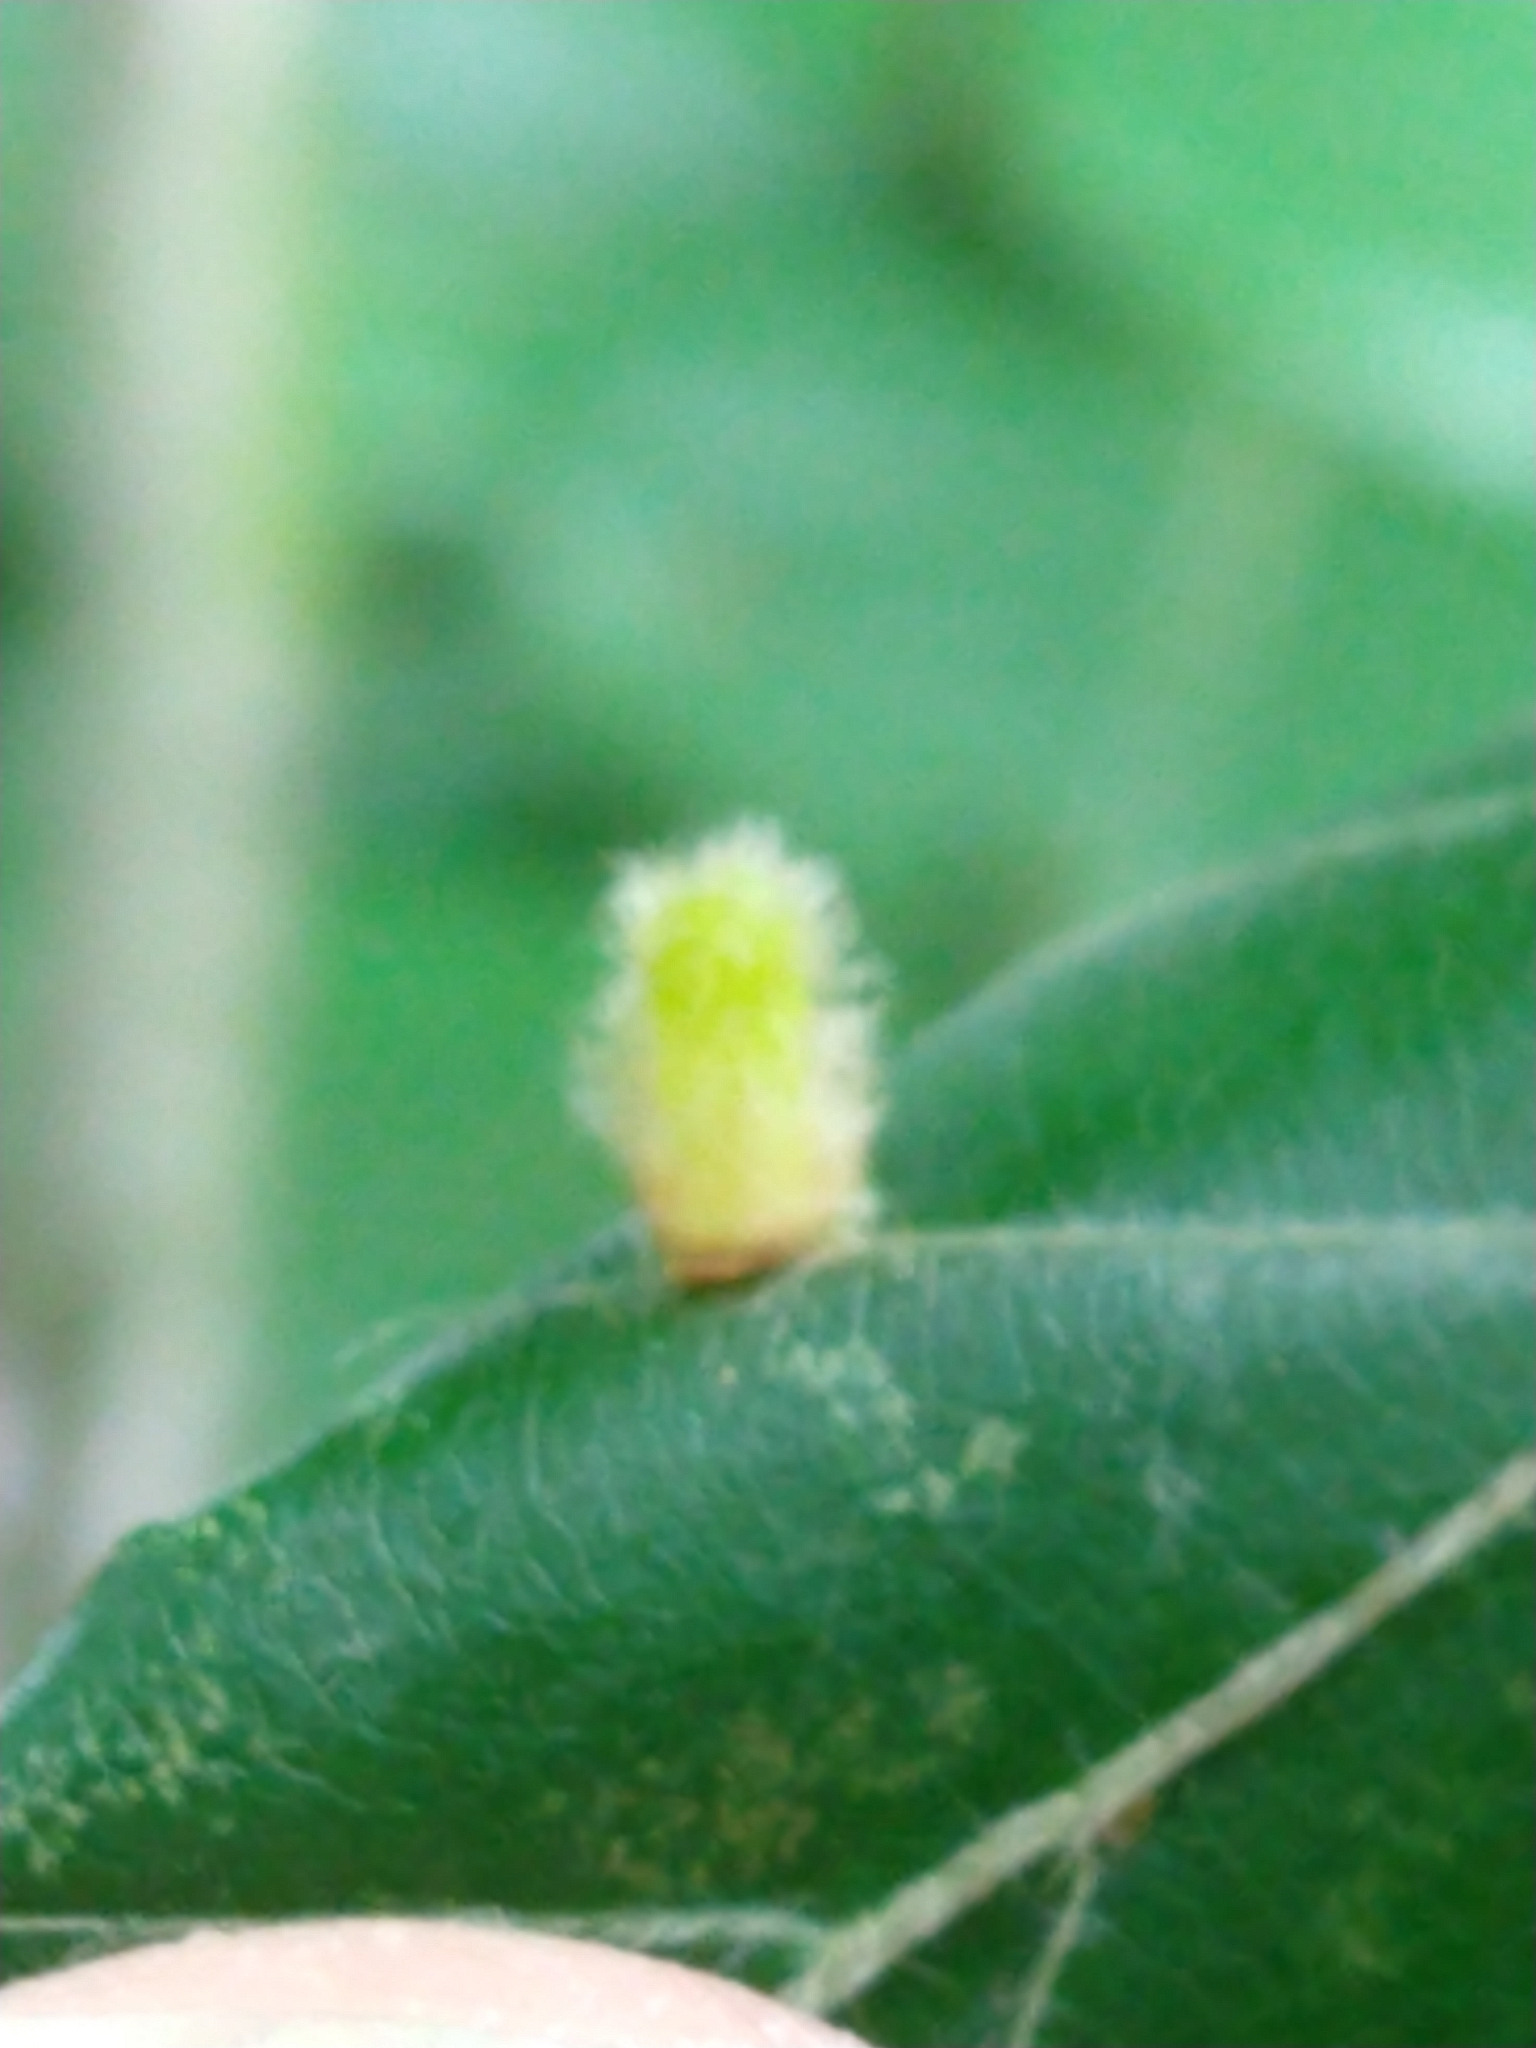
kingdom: Animalia
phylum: Arthropoda
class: Insecta
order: Diptera
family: Cecidomyiidae
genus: Hartigiola
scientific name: Hartigiola annulipes
